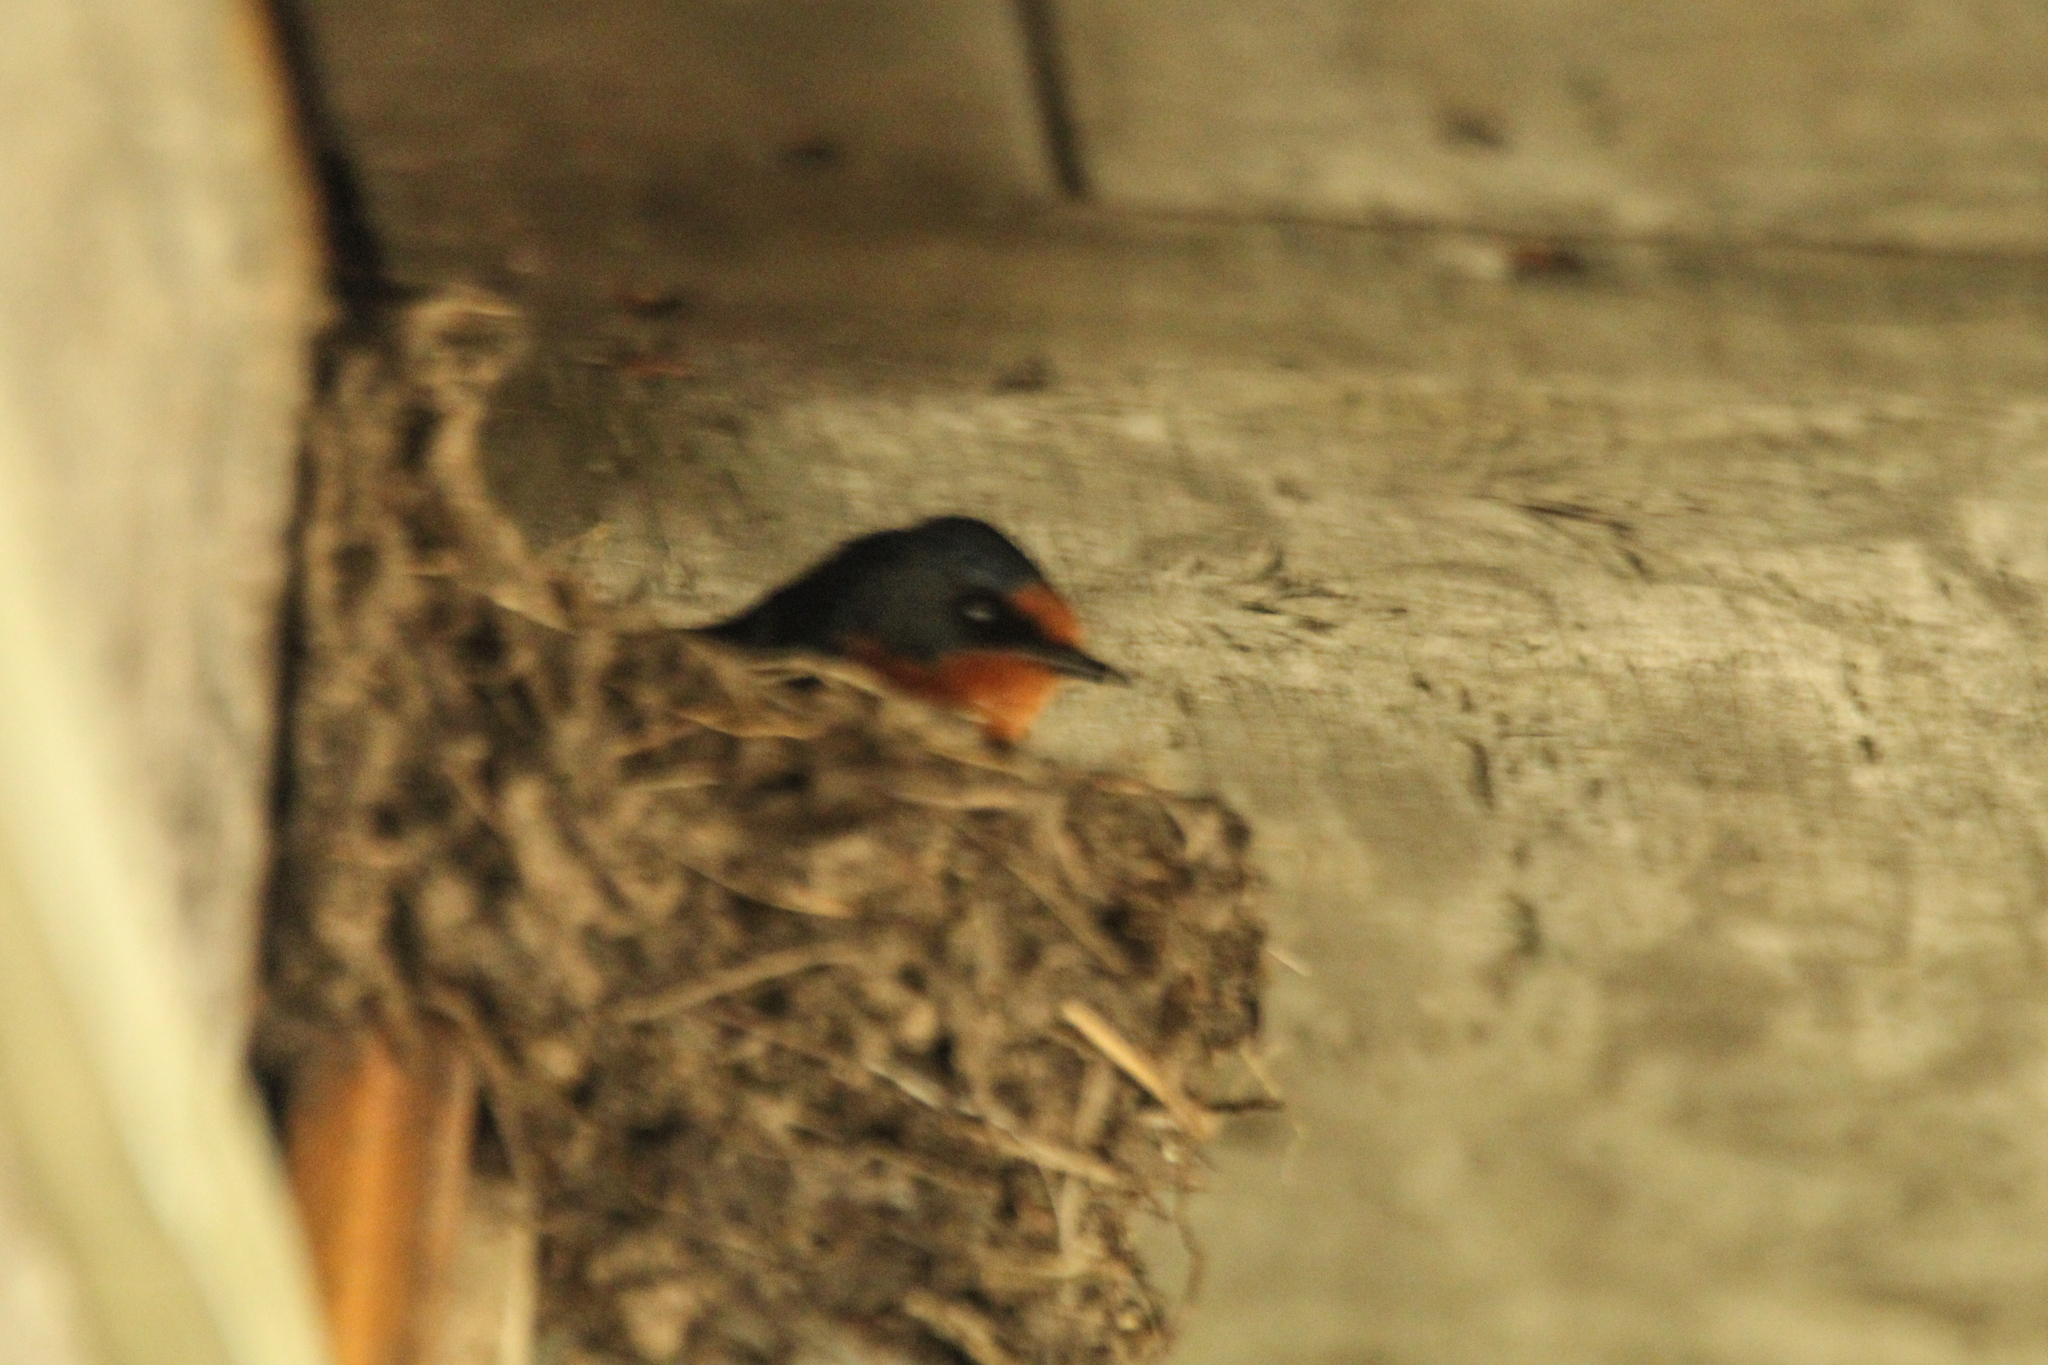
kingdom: Animalia
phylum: Chordata
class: Aves
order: Passeriformes
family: Hirundinidae
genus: Hirundo
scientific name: Hirundo rustica
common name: Barn swallow
